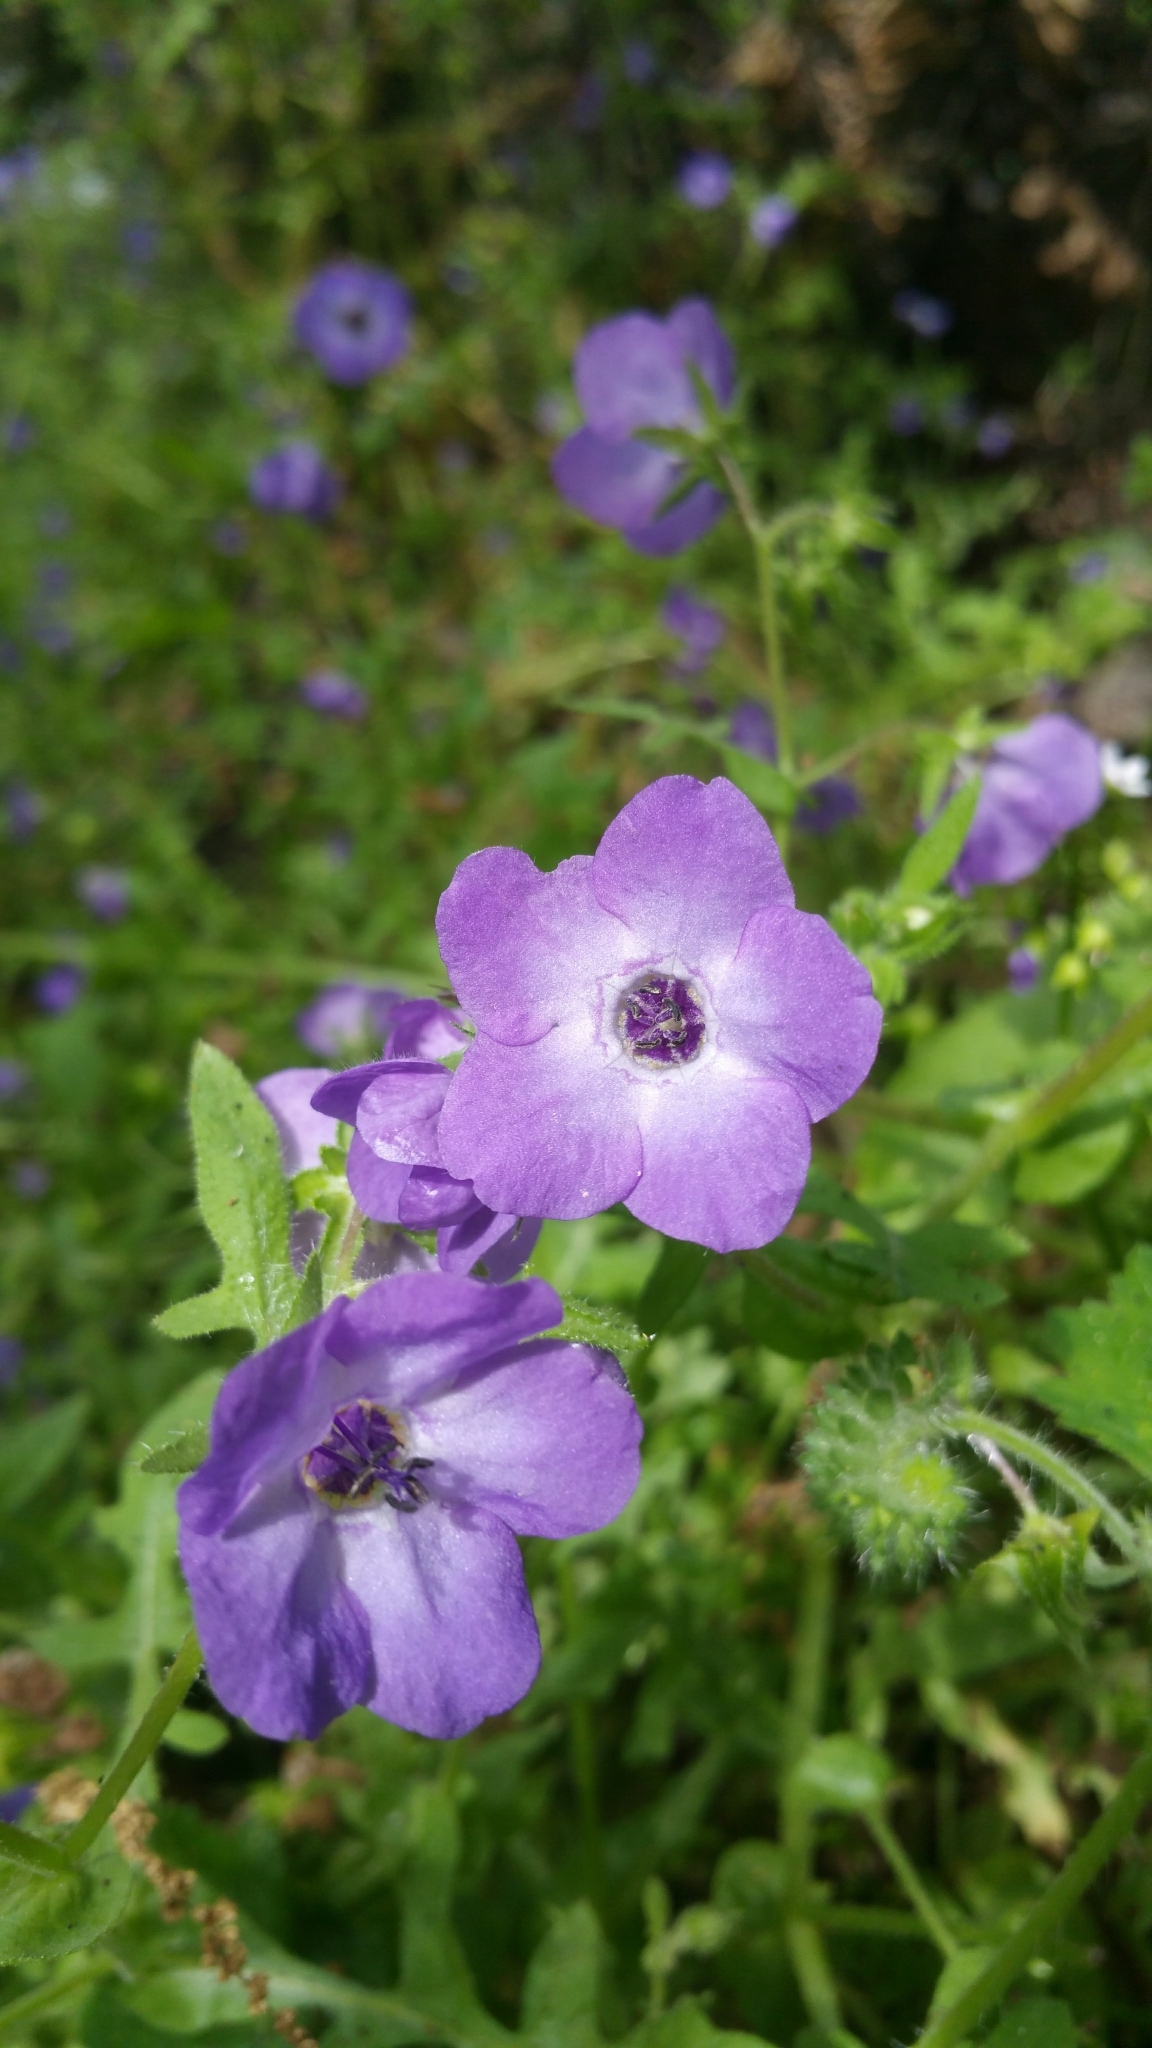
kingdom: Plantae
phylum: Tracheophyta
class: Magnoliopsida
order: Boraginales
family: Hydrophyllaceae
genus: Pholistoma
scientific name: Pholistoma auritum
